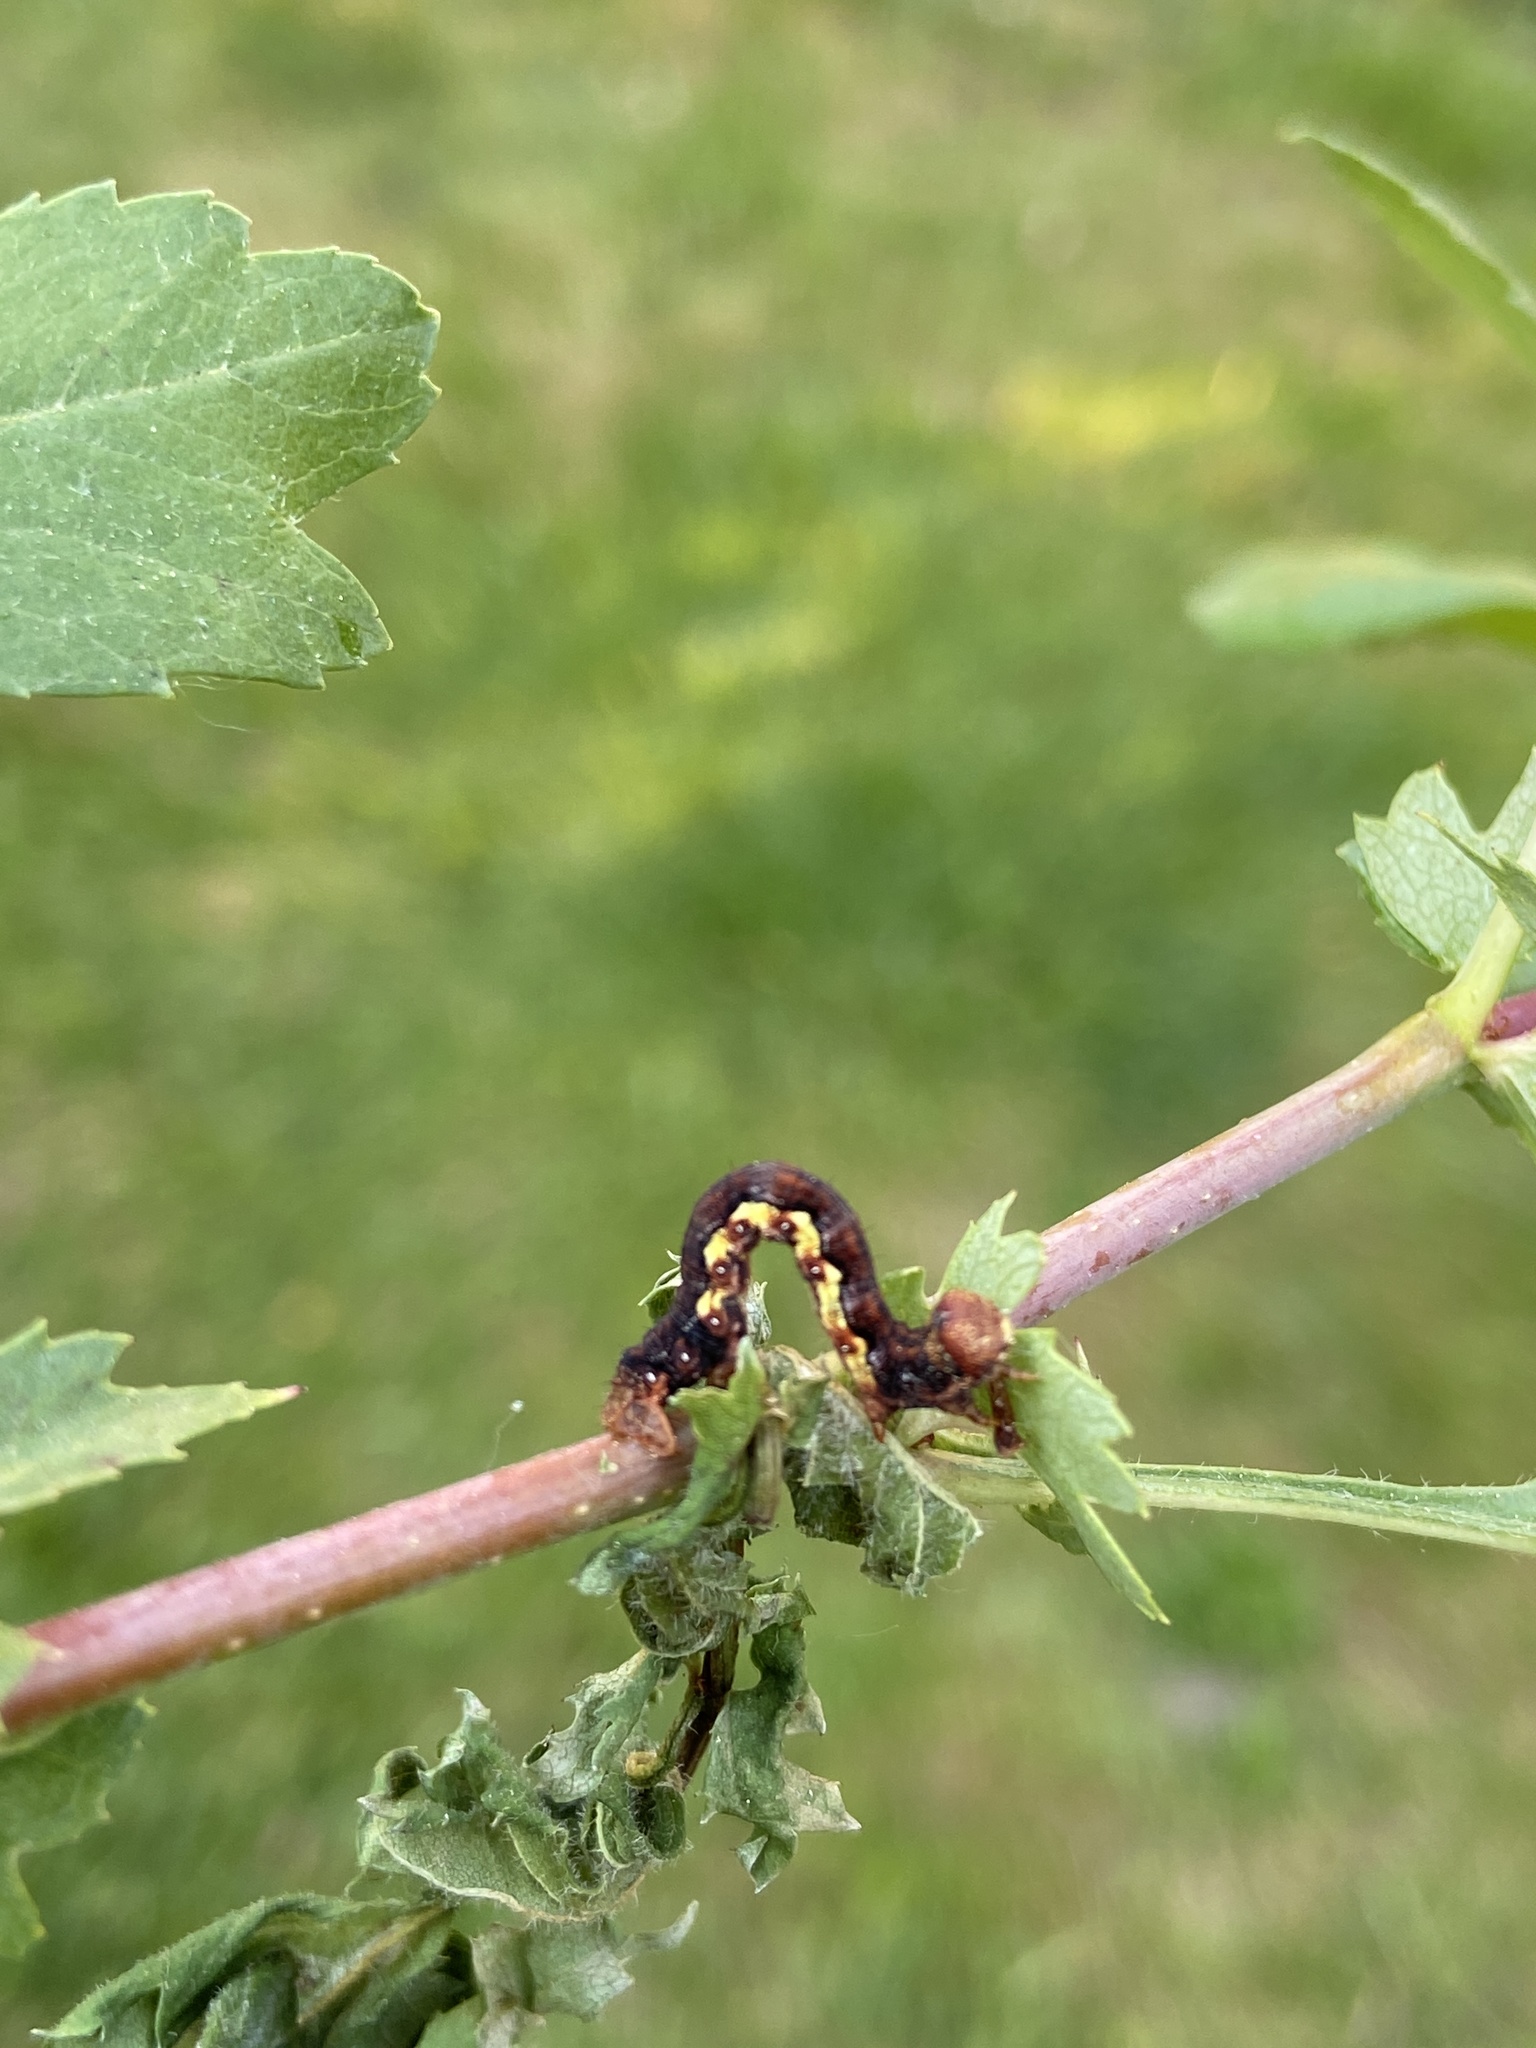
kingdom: Animalia
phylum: Arthropoda
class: Insecta
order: Lepidoptera
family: Geometridae
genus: Erannis
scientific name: Erannis defoliaria
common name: Mottled umber
